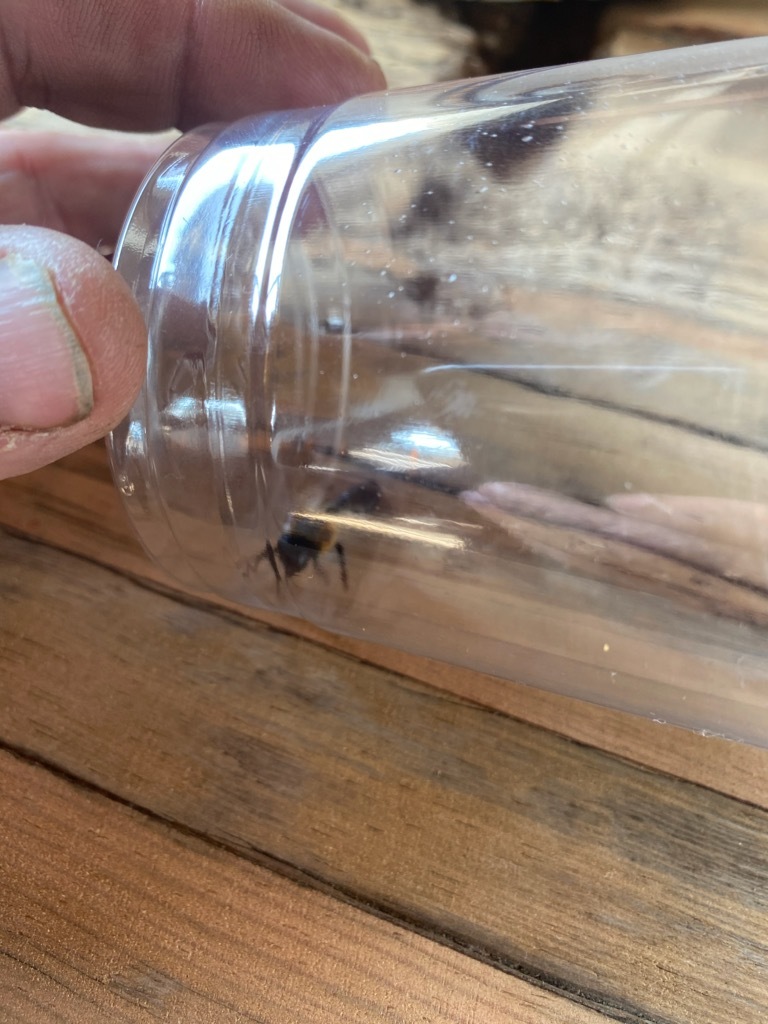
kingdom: Animalia
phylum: Arthropoda
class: Insecta
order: Hymenoptera
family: Megachilidae
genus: Megachile
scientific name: Megachile sculpturalis
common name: Sculptured resin bee
